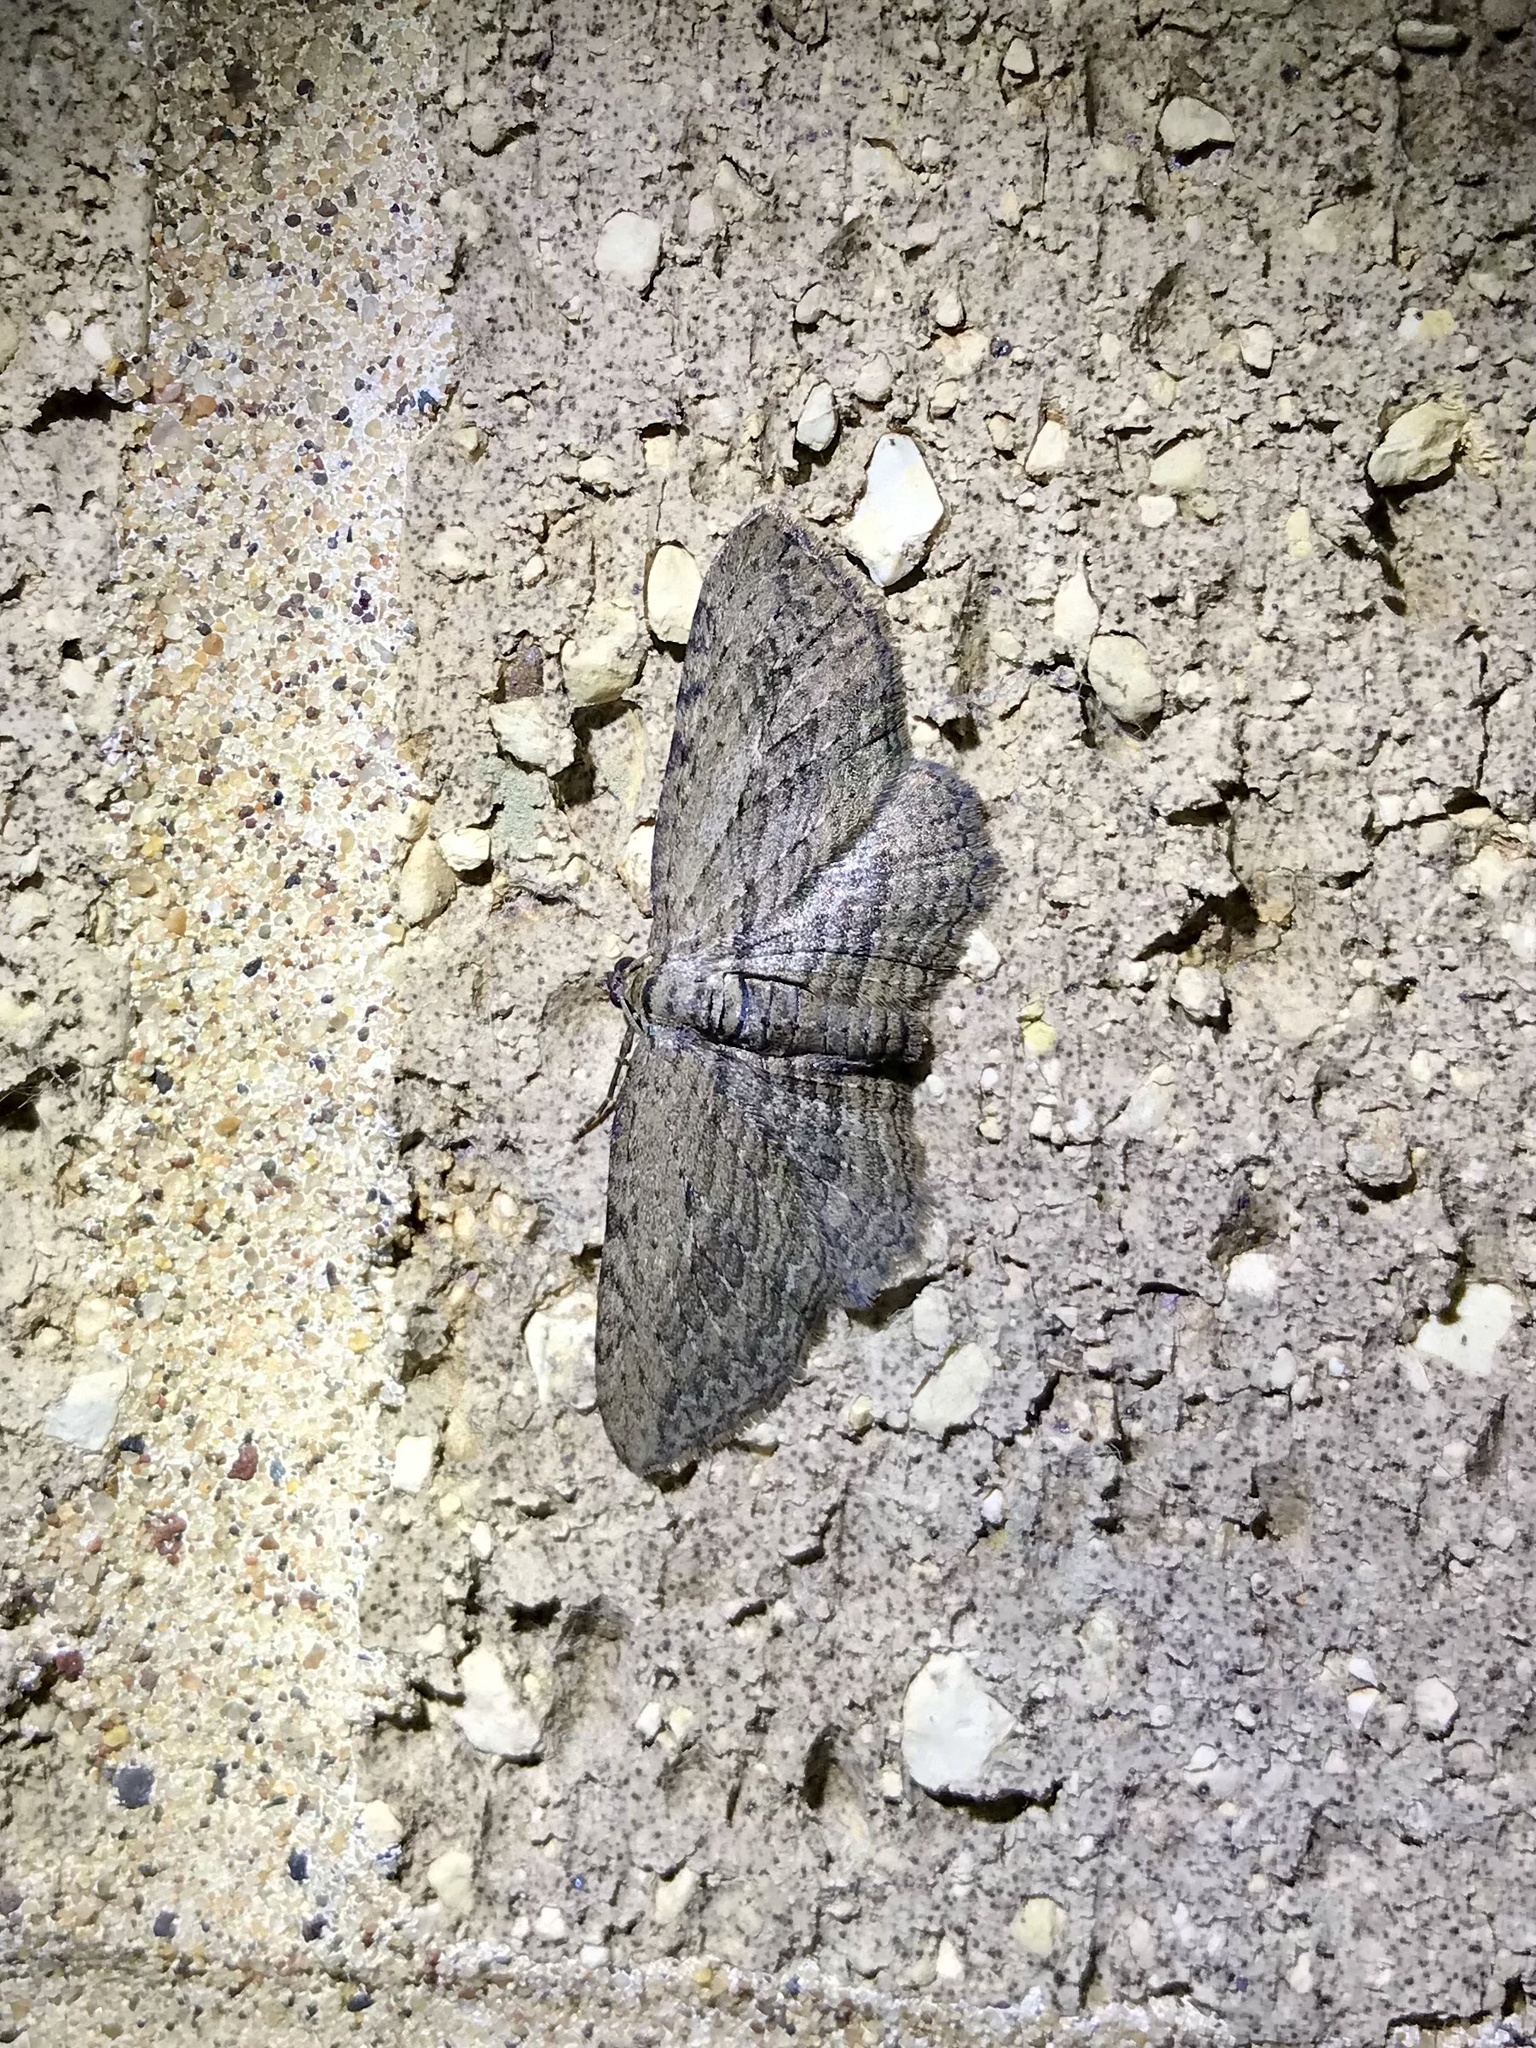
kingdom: Animalia
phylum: Arthropoda
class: Insecta
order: Lepidoptera
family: Geometridae
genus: Horisme
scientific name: Horisme intestinata
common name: Brown bark carpet
